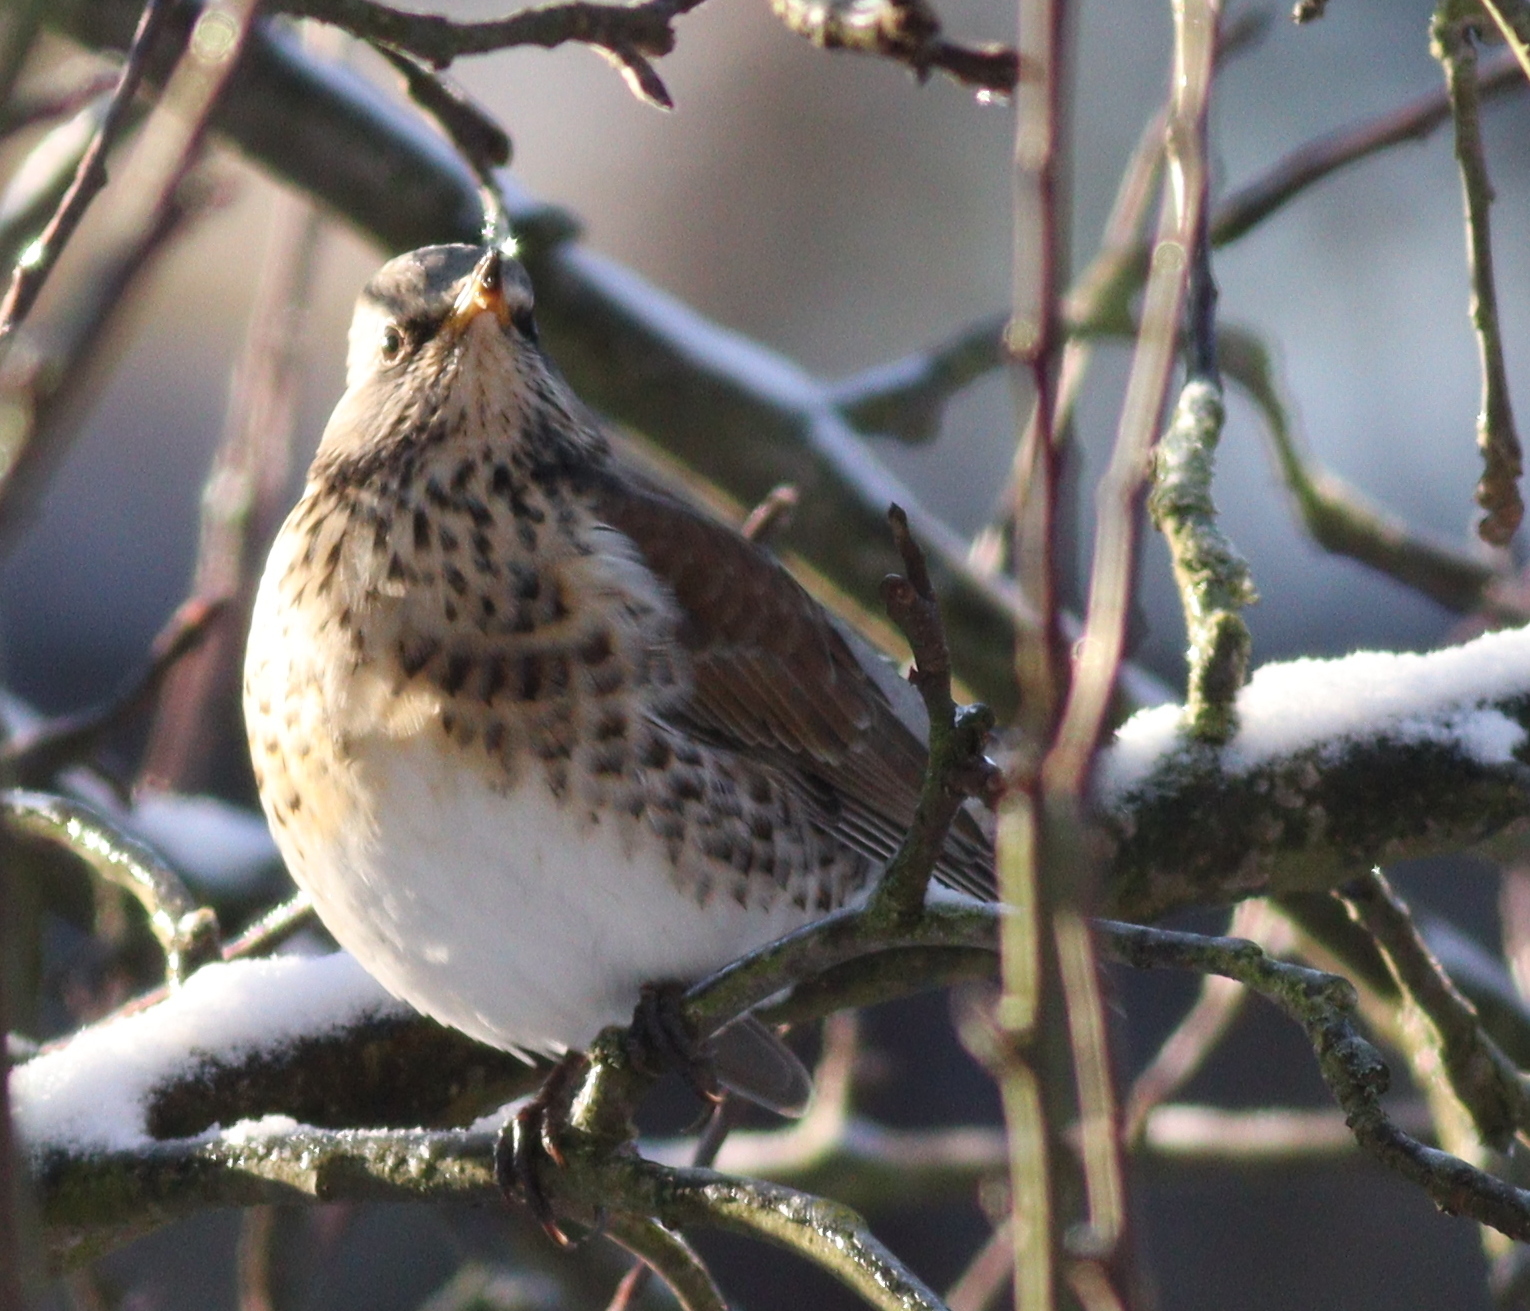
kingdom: Animalia
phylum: Chordata
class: Aves
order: Passeriformes
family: Turdidae
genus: Turdus
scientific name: Turdus pilaris
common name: Fieldfare
